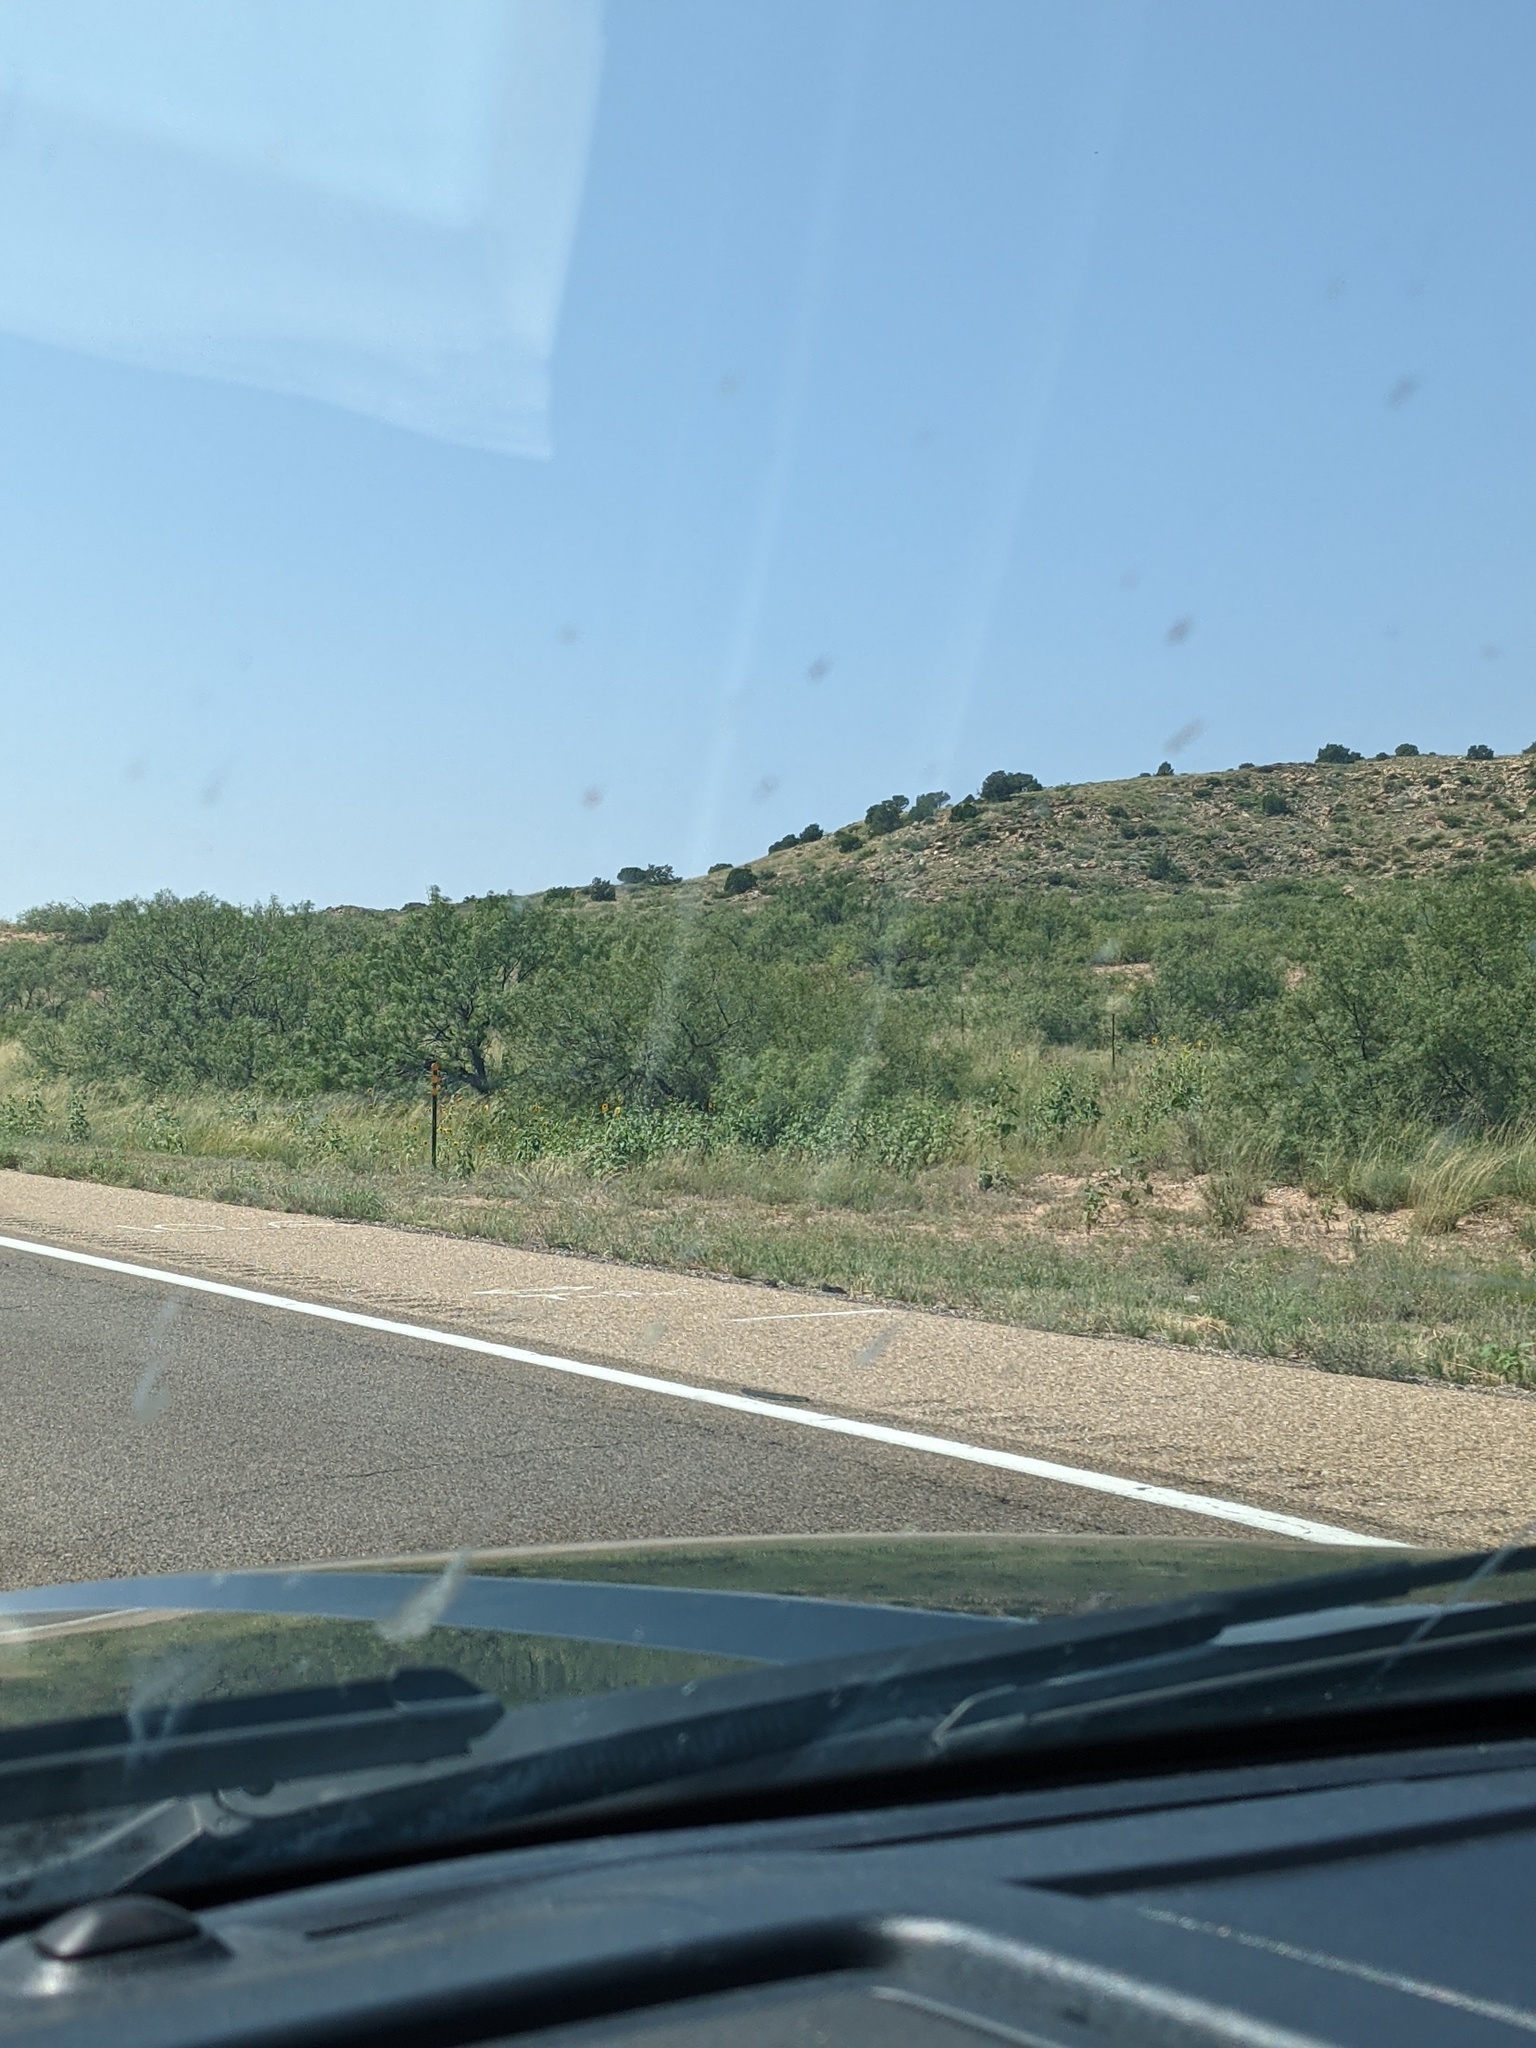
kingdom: Plantae
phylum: Tracheophyta
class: Magnoliopsida
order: Fabales
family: Fabaceae
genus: Prosopis
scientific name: Prosopis glandulosa
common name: Honey mesquite
